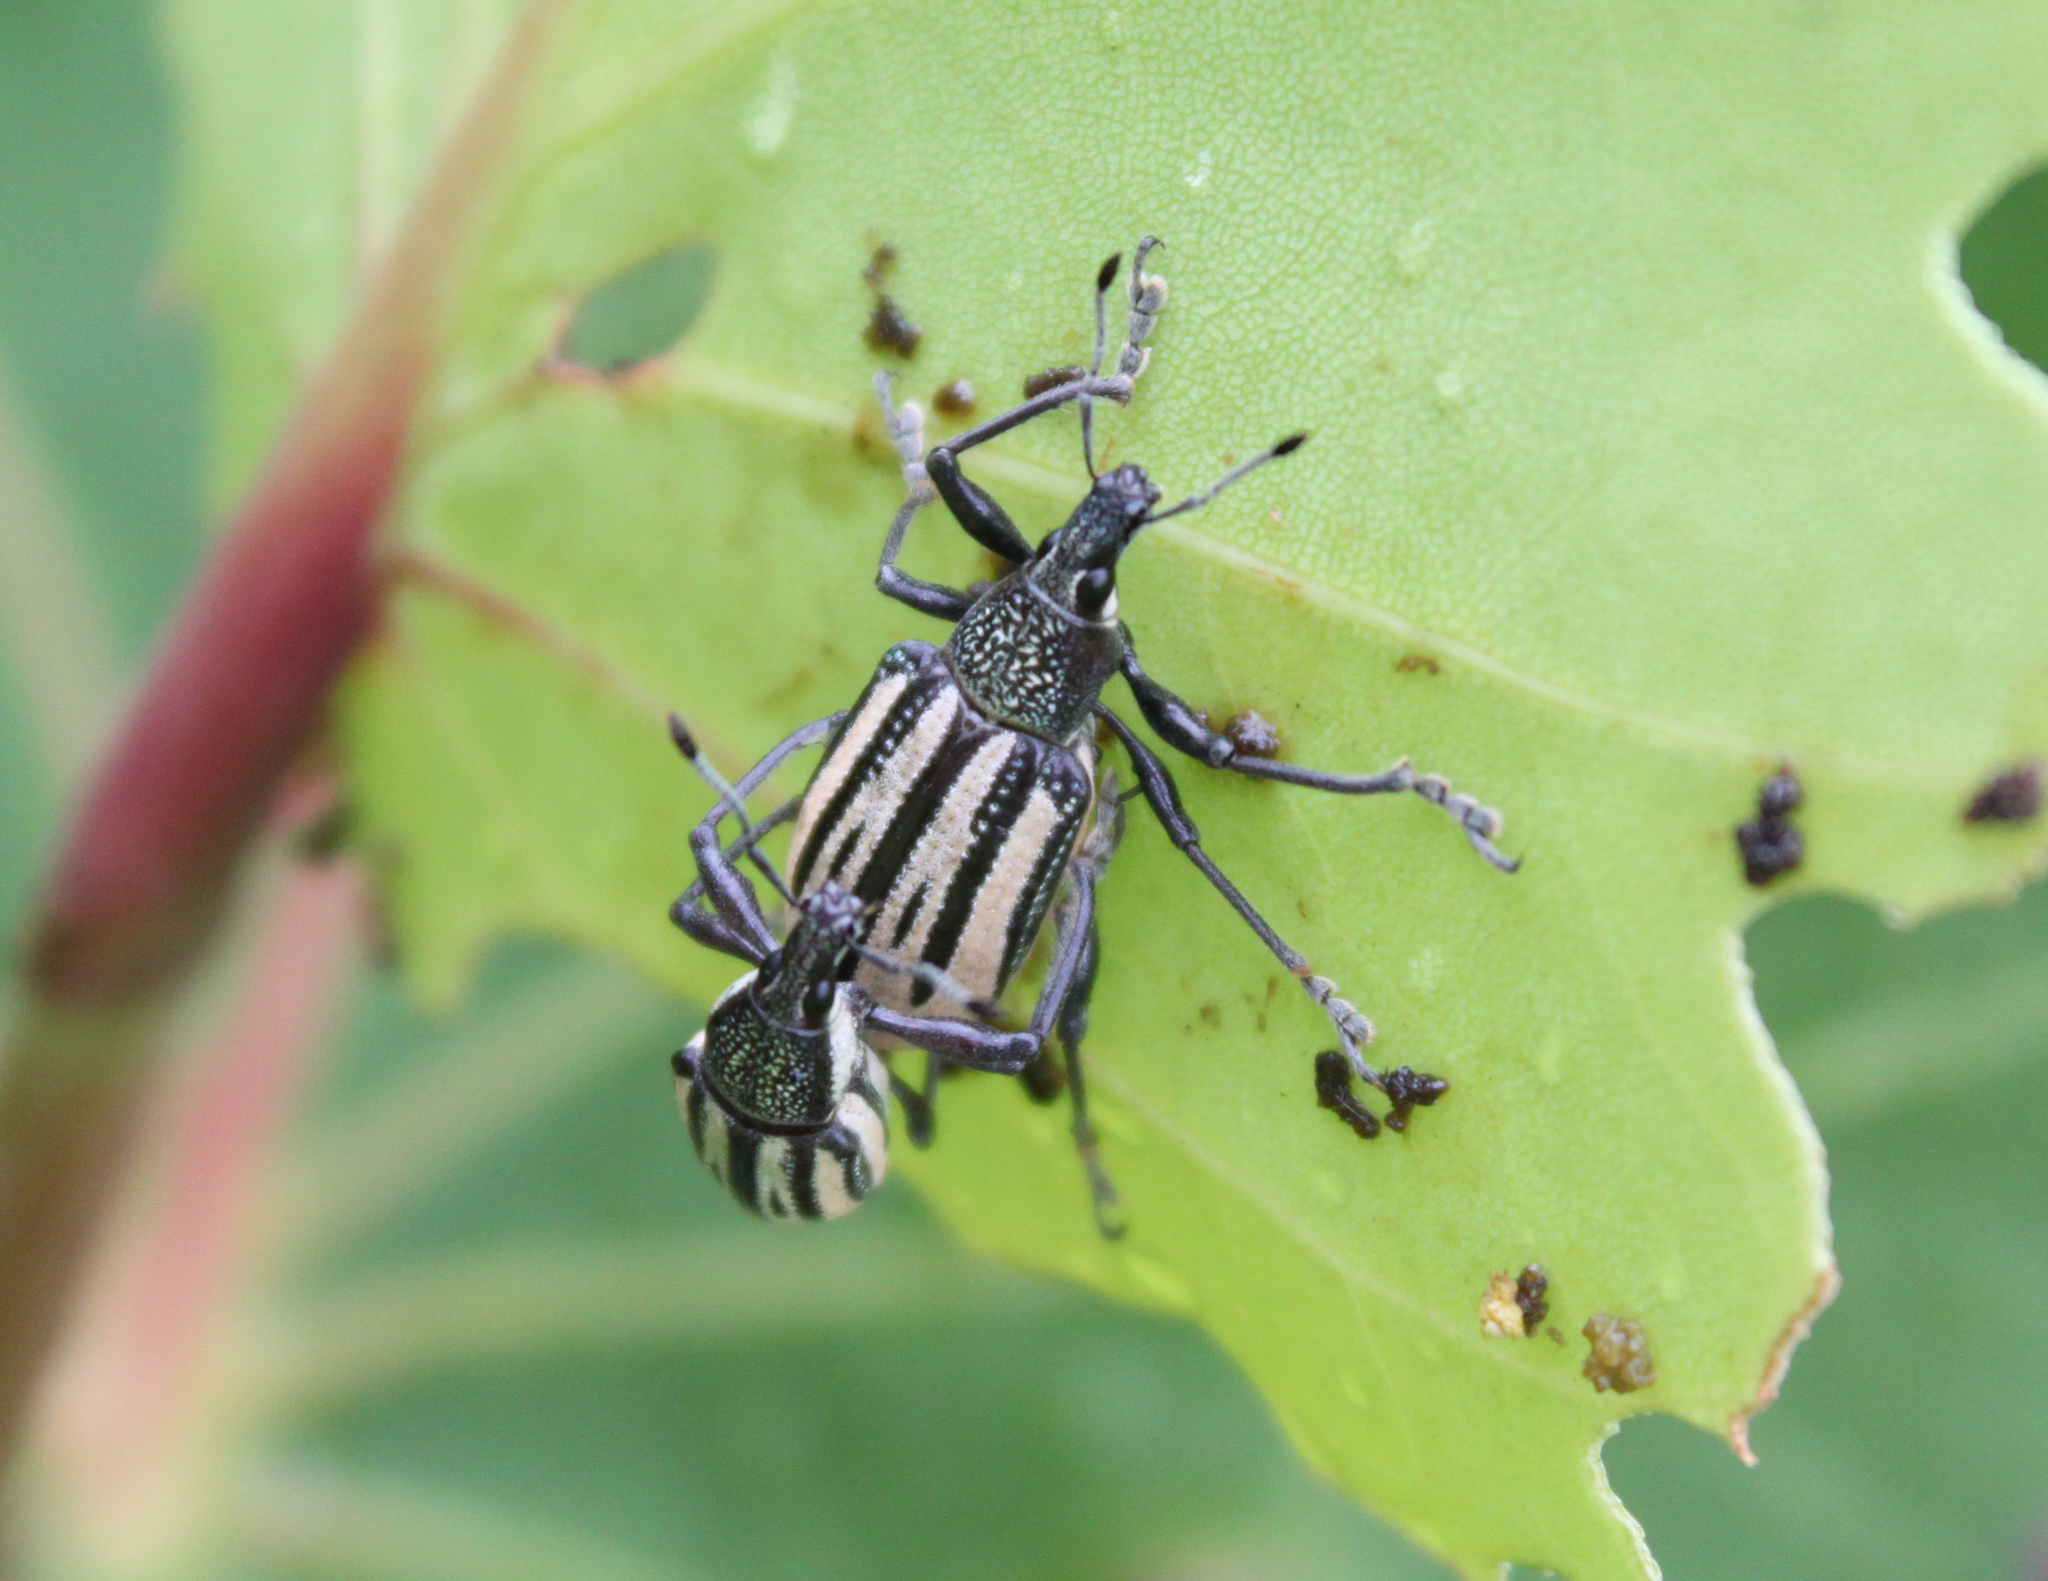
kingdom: Animalia
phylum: Arthropoda
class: Insecta
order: Coleoptera
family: Curculionidae
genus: Diaprepes
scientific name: Diaprepes abbreviatus
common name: Root weevil
